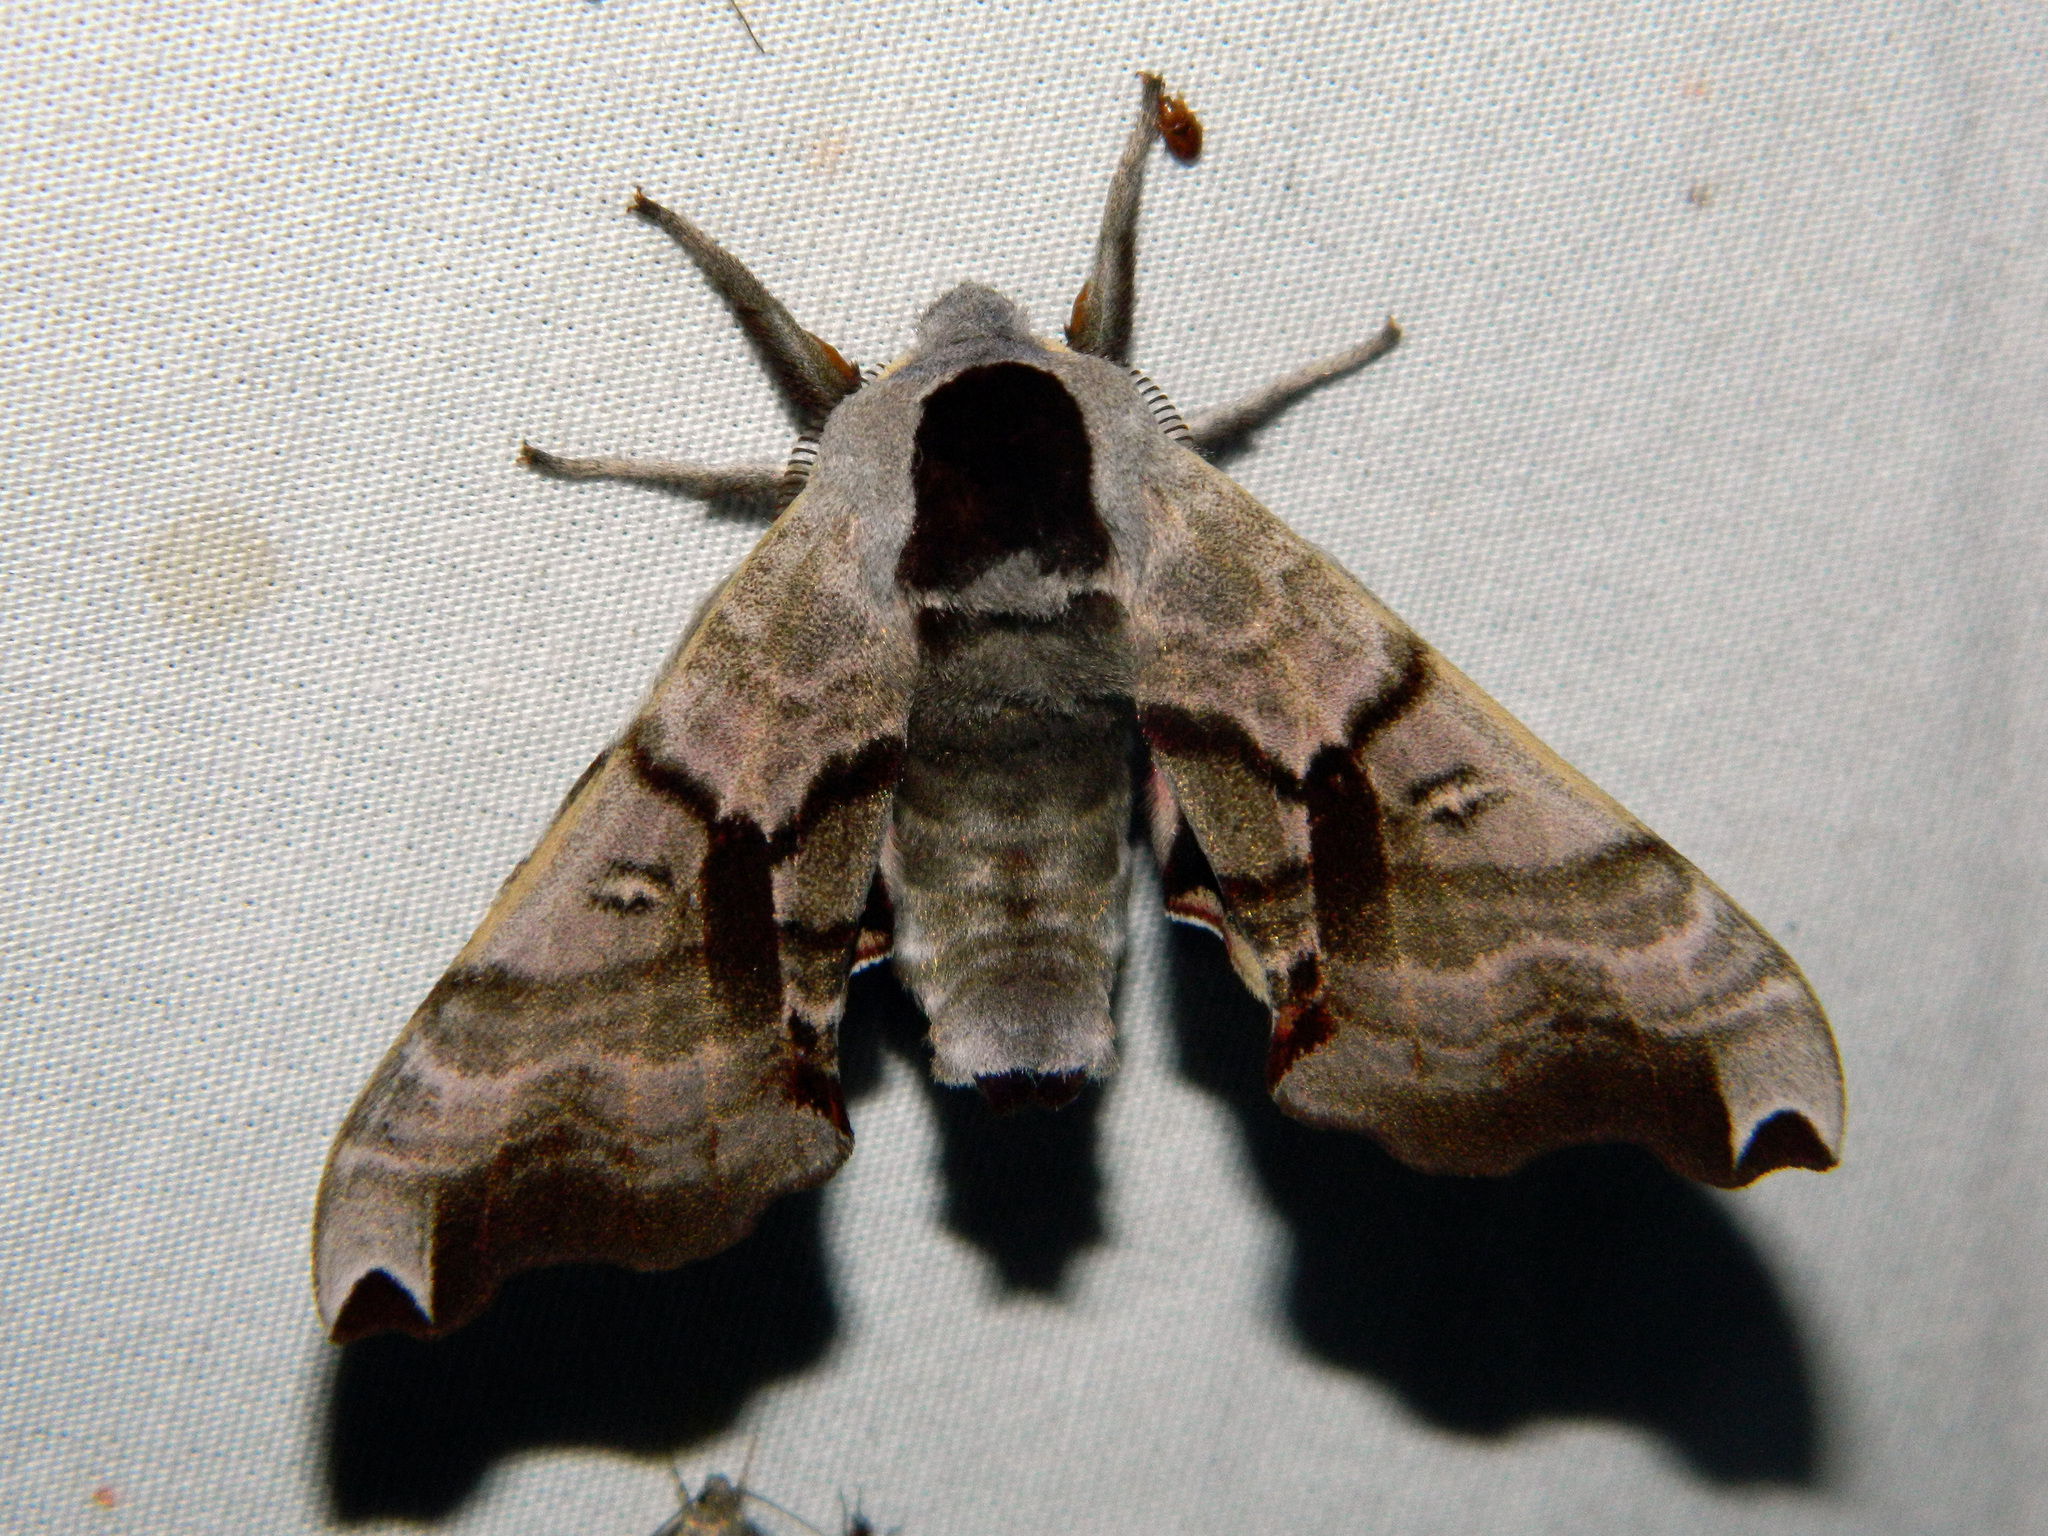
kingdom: Animalia
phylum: Arthropoda
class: Insecta
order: Lepidoptera
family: Sphingidae
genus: Smerinthus
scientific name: Smerinthus jamaicensis
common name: Twin spotted sphinx
